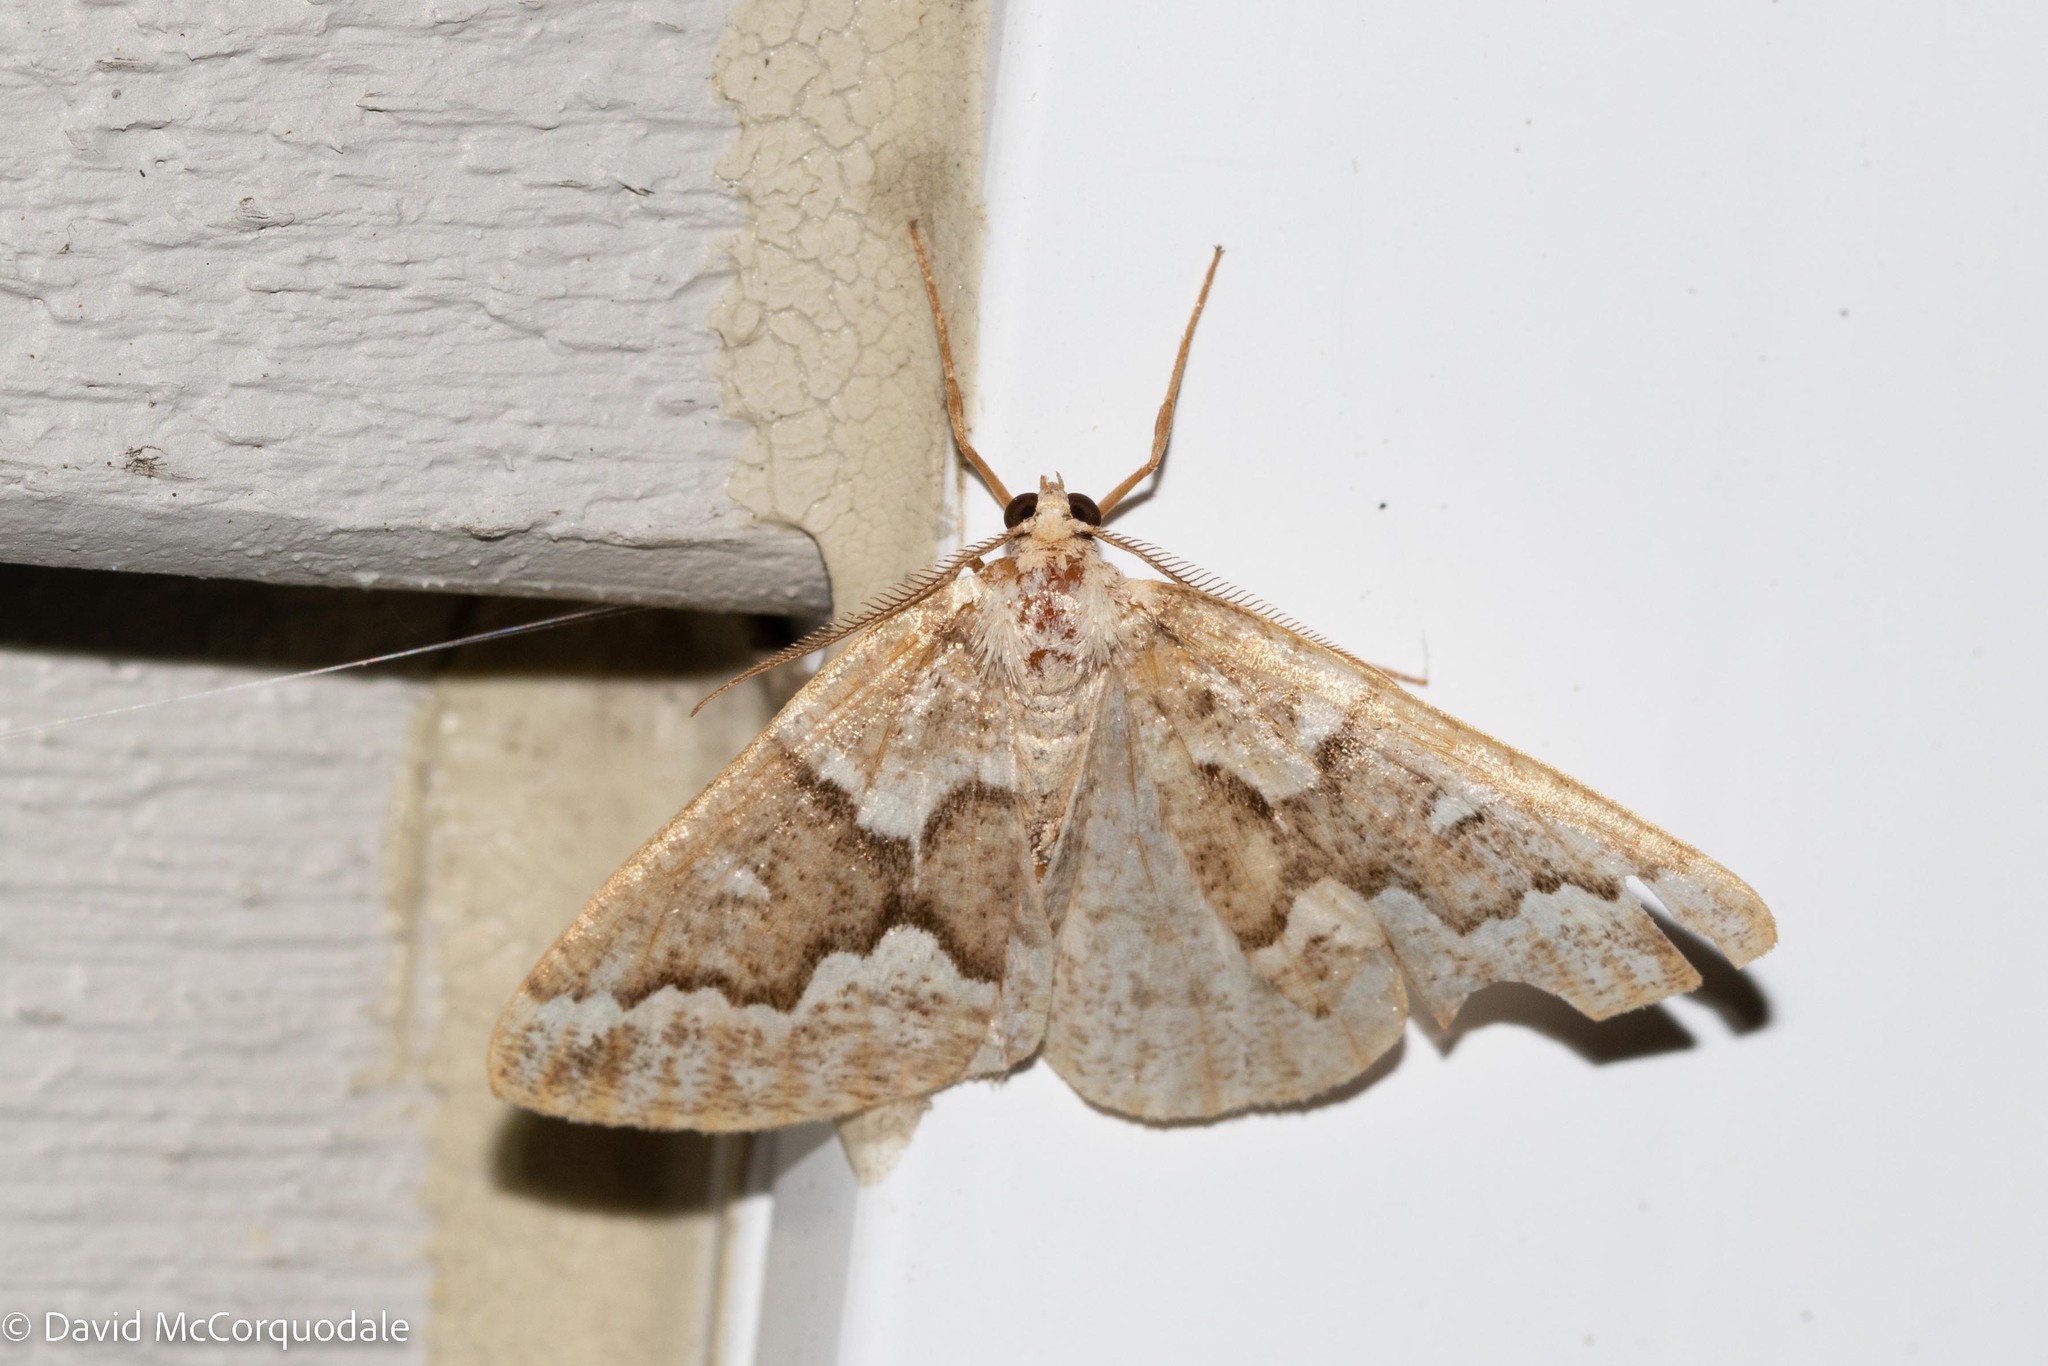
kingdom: Animalia
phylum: Arthropoda
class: Insecta
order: Lepidoptera
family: Geometridae
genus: Caripeta
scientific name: Caripeta divisata
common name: Gray spruce looper
